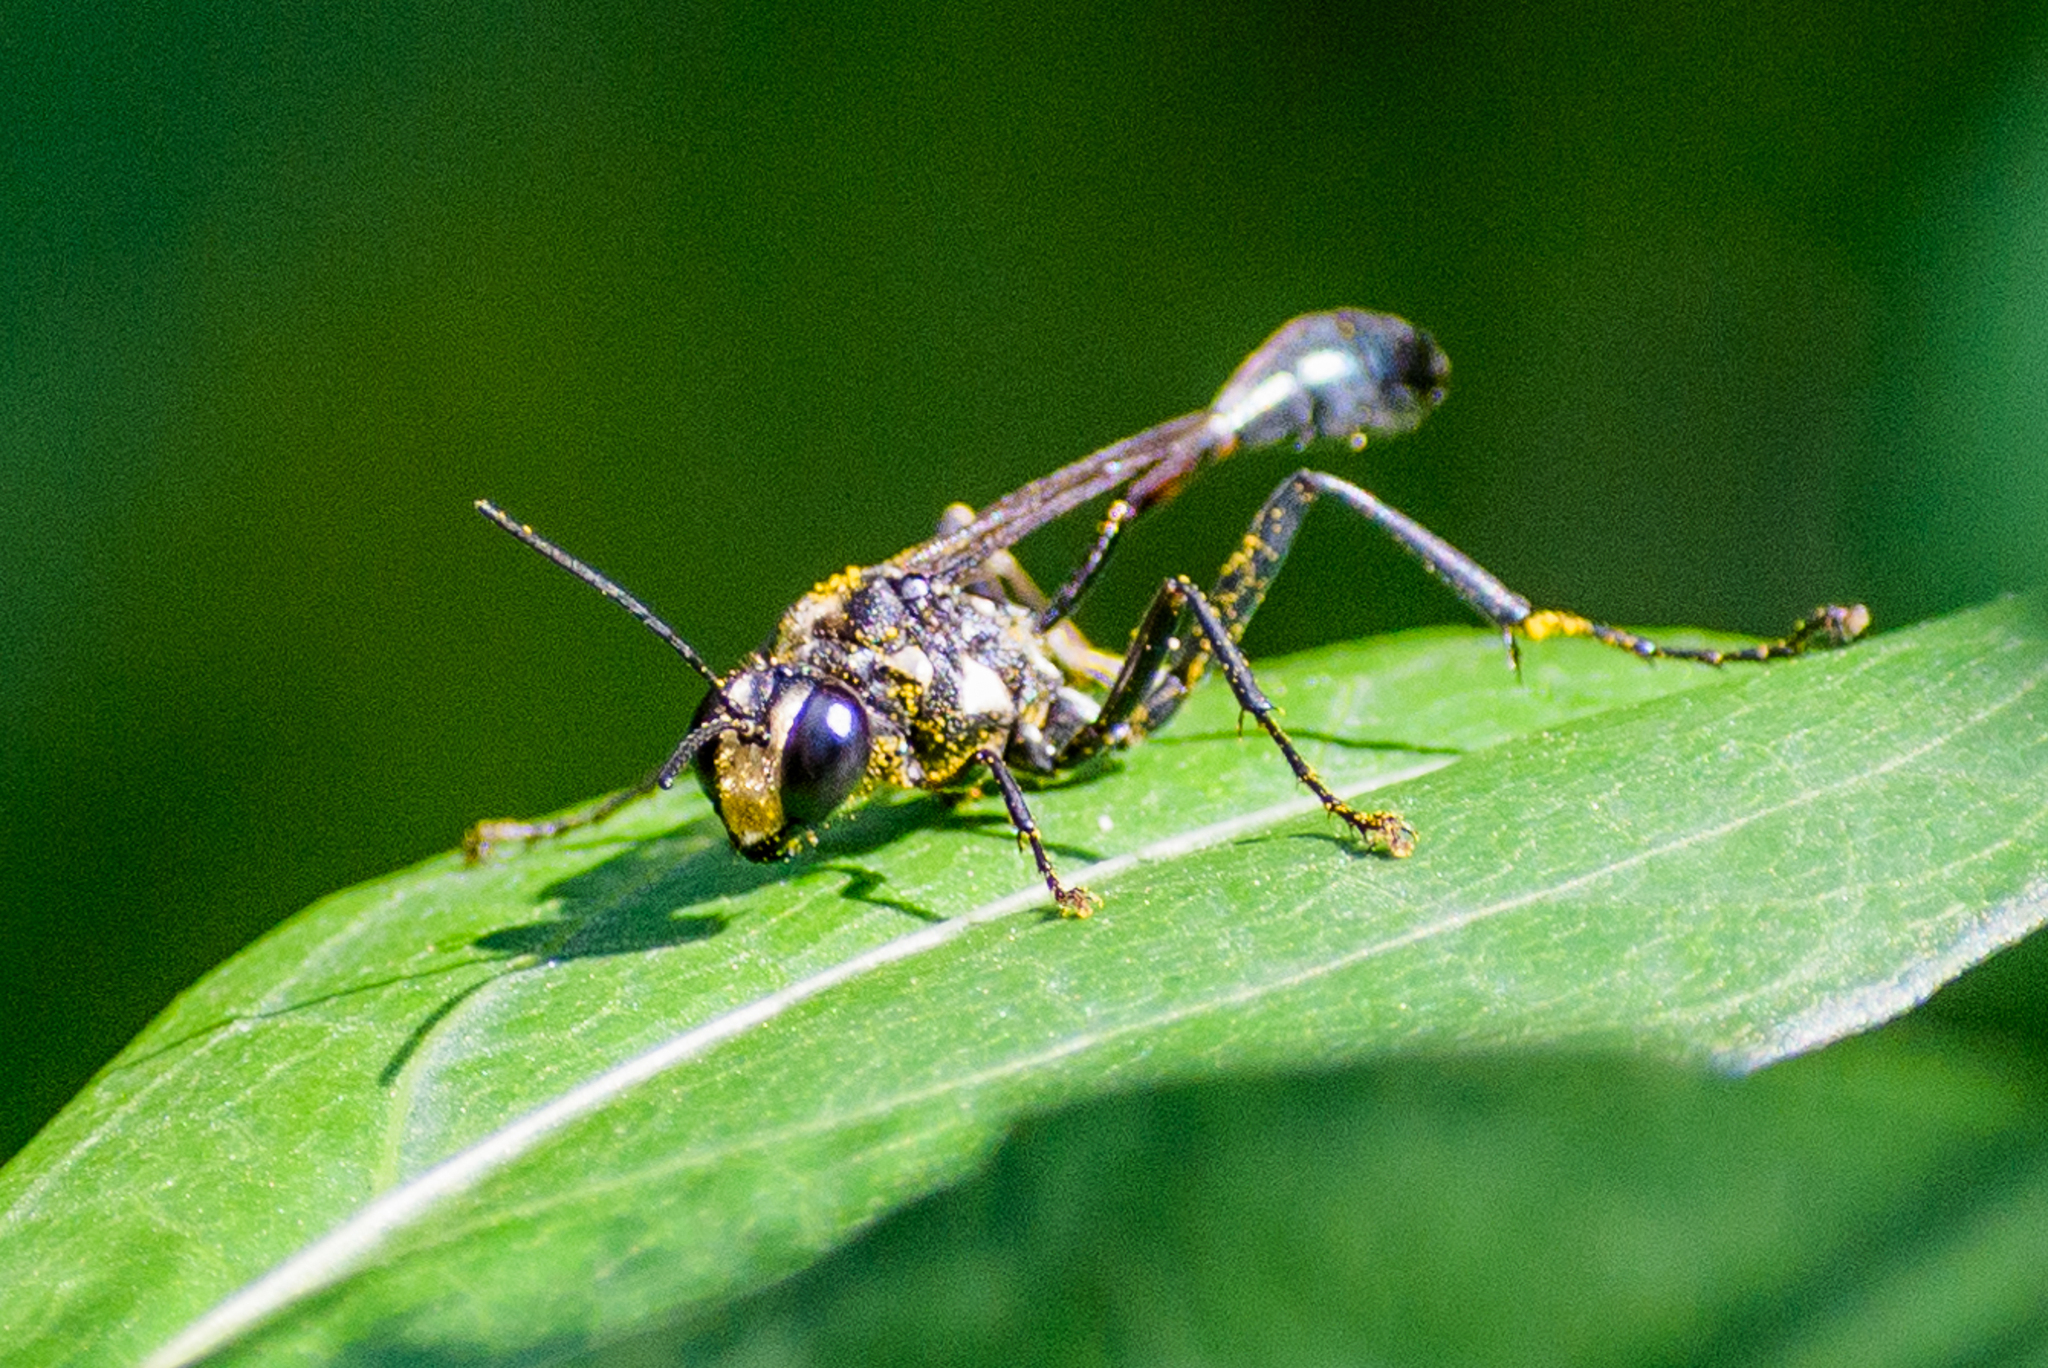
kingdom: Animalia
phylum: Arthropoda
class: Insecta
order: Hymenoptera
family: Sphecidae
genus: Eremnophila
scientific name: Eremnophila aureonotata
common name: Gold-marked thread-waisted wasp
